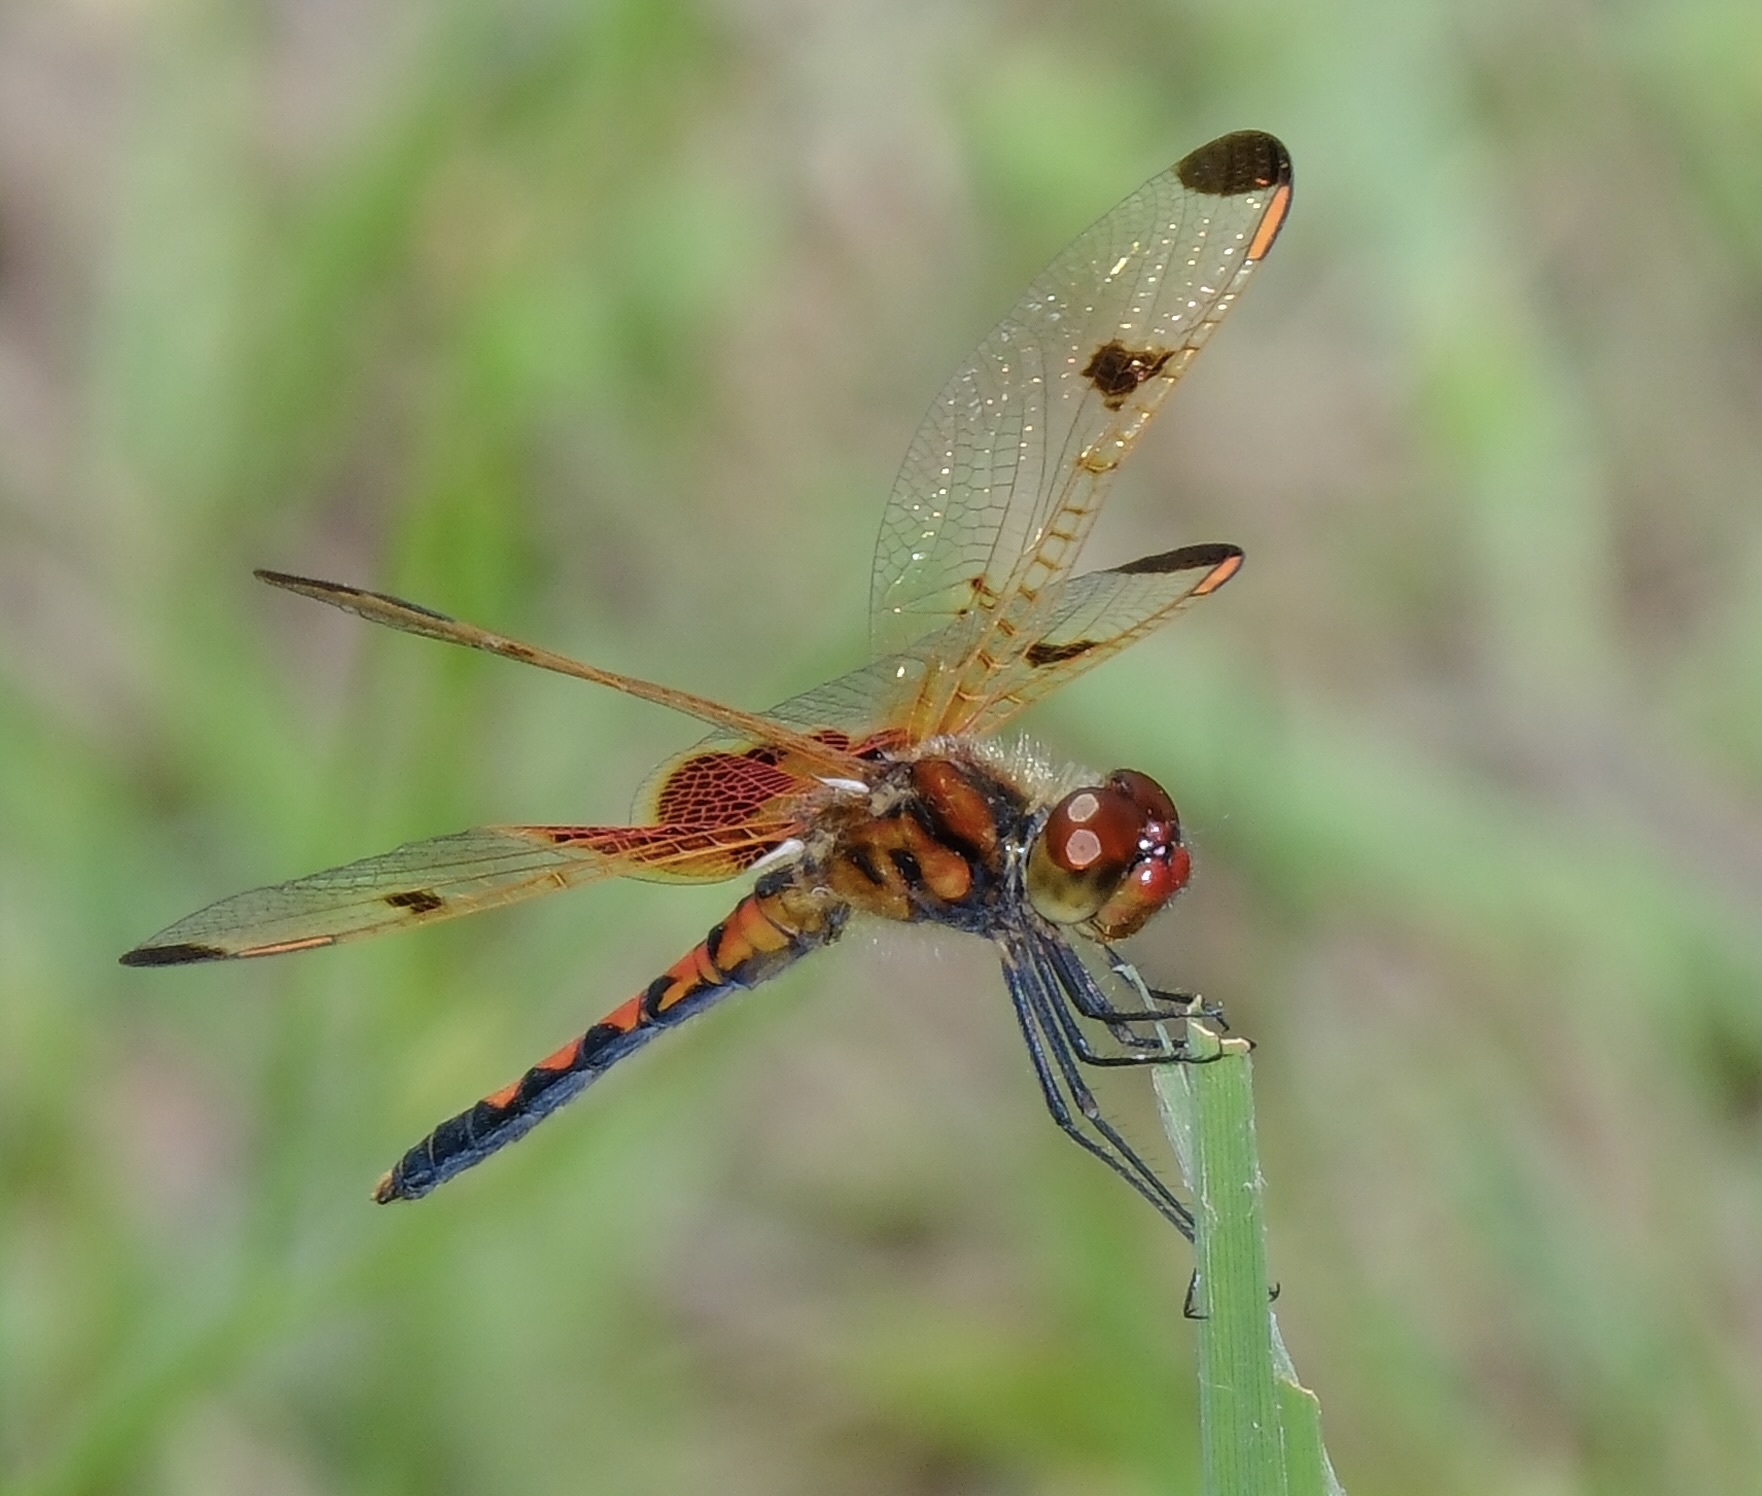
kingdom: Animalia
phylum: Arthropoda
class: Insecta
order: Odonata
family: Libellulidae
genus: Celithemis
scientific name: Celithemis elisa
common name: Calico pennant
